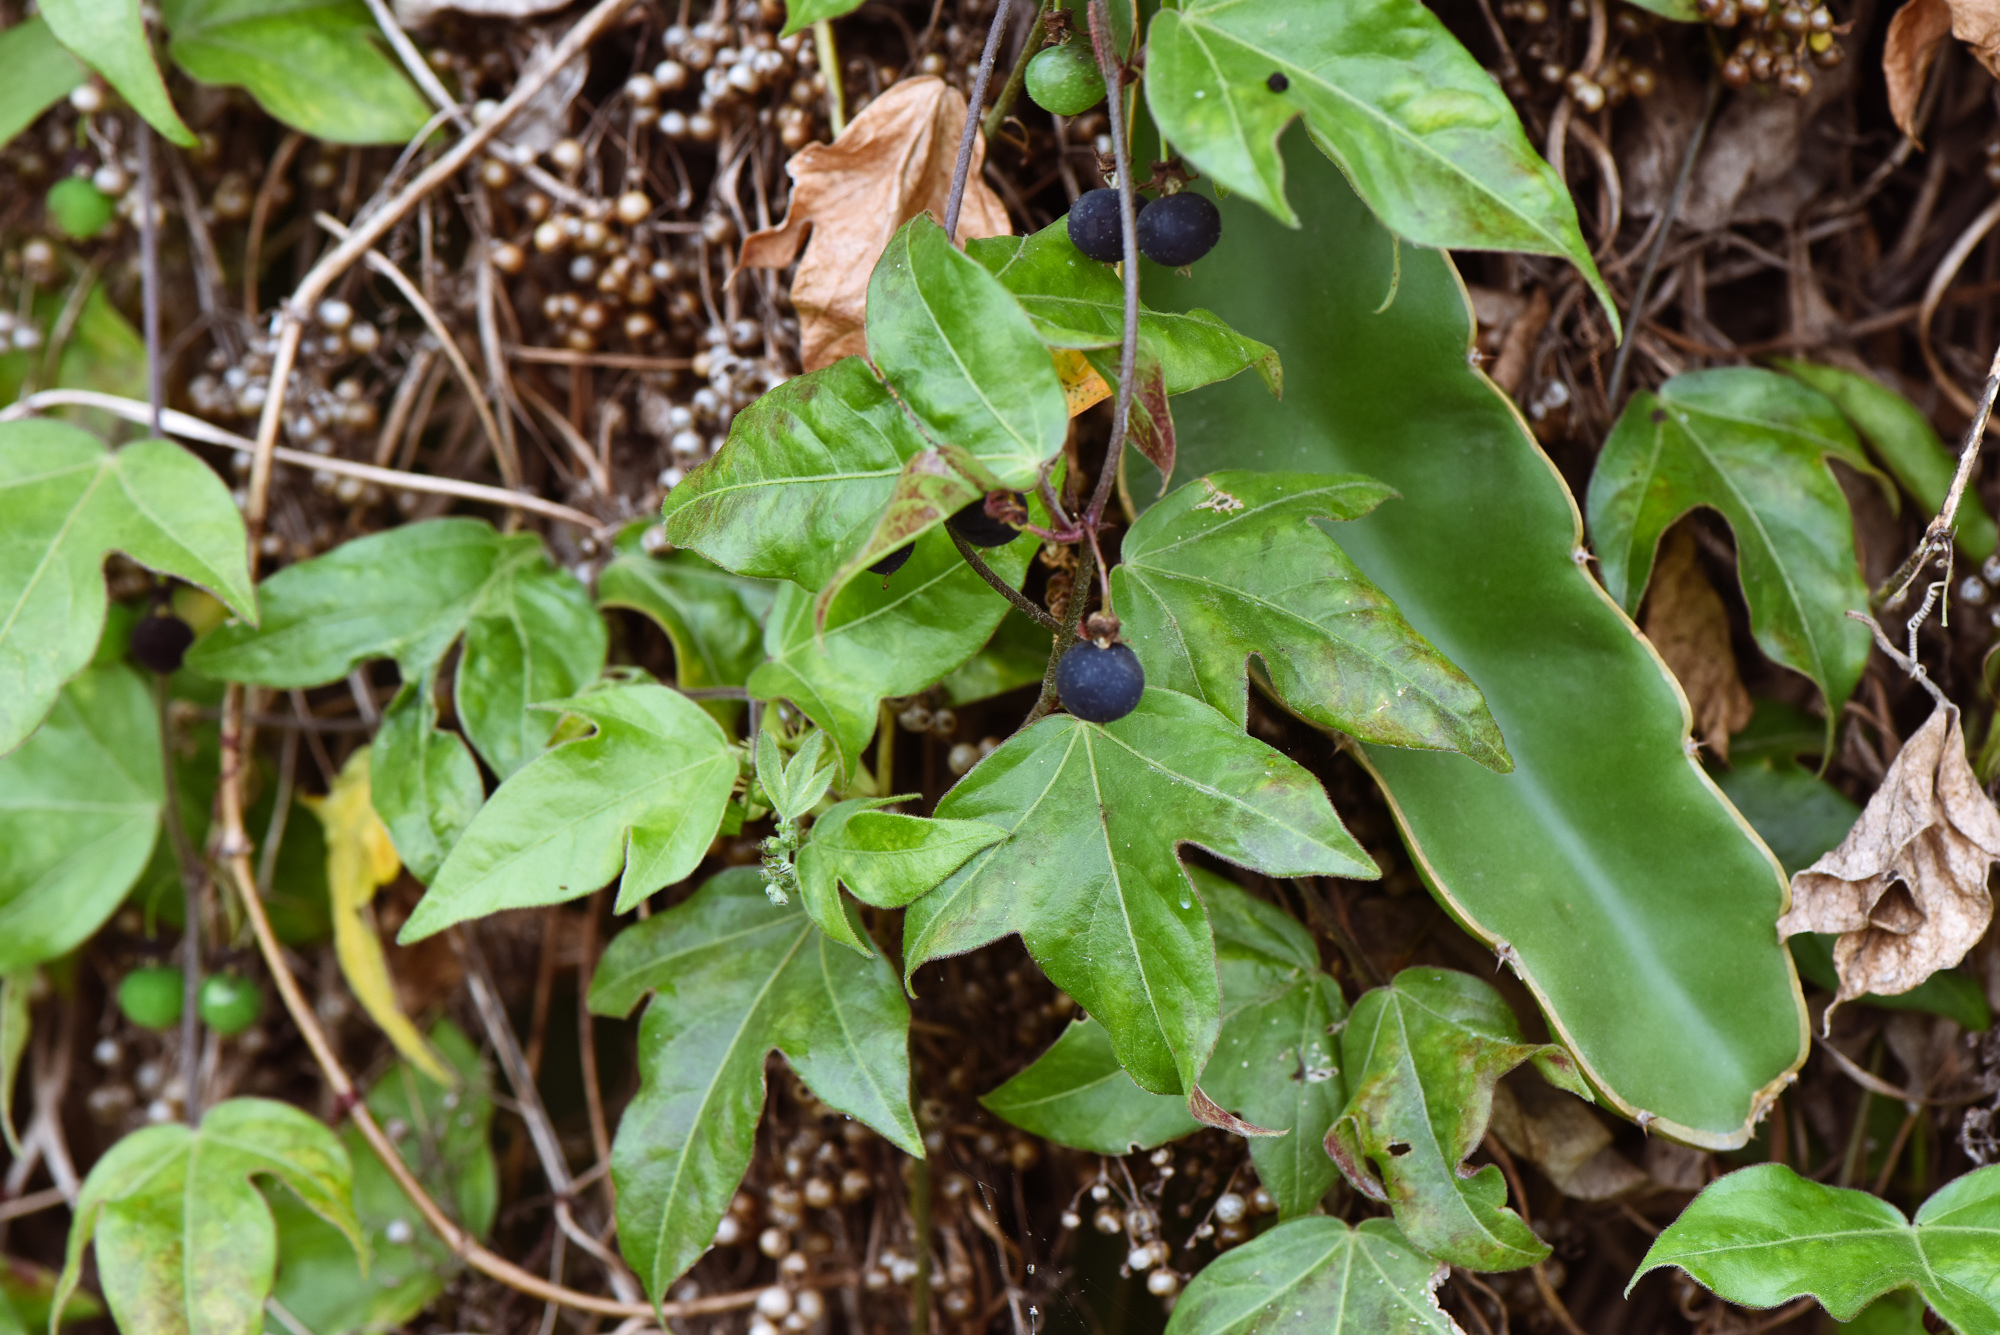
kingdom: Plantae
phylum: Tracheophyta
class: Magnoliopsida
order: Malpighiales
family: Passifloraceae
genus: Passiflora
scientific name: Passiflora suberosa
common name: Wild passionfruit
